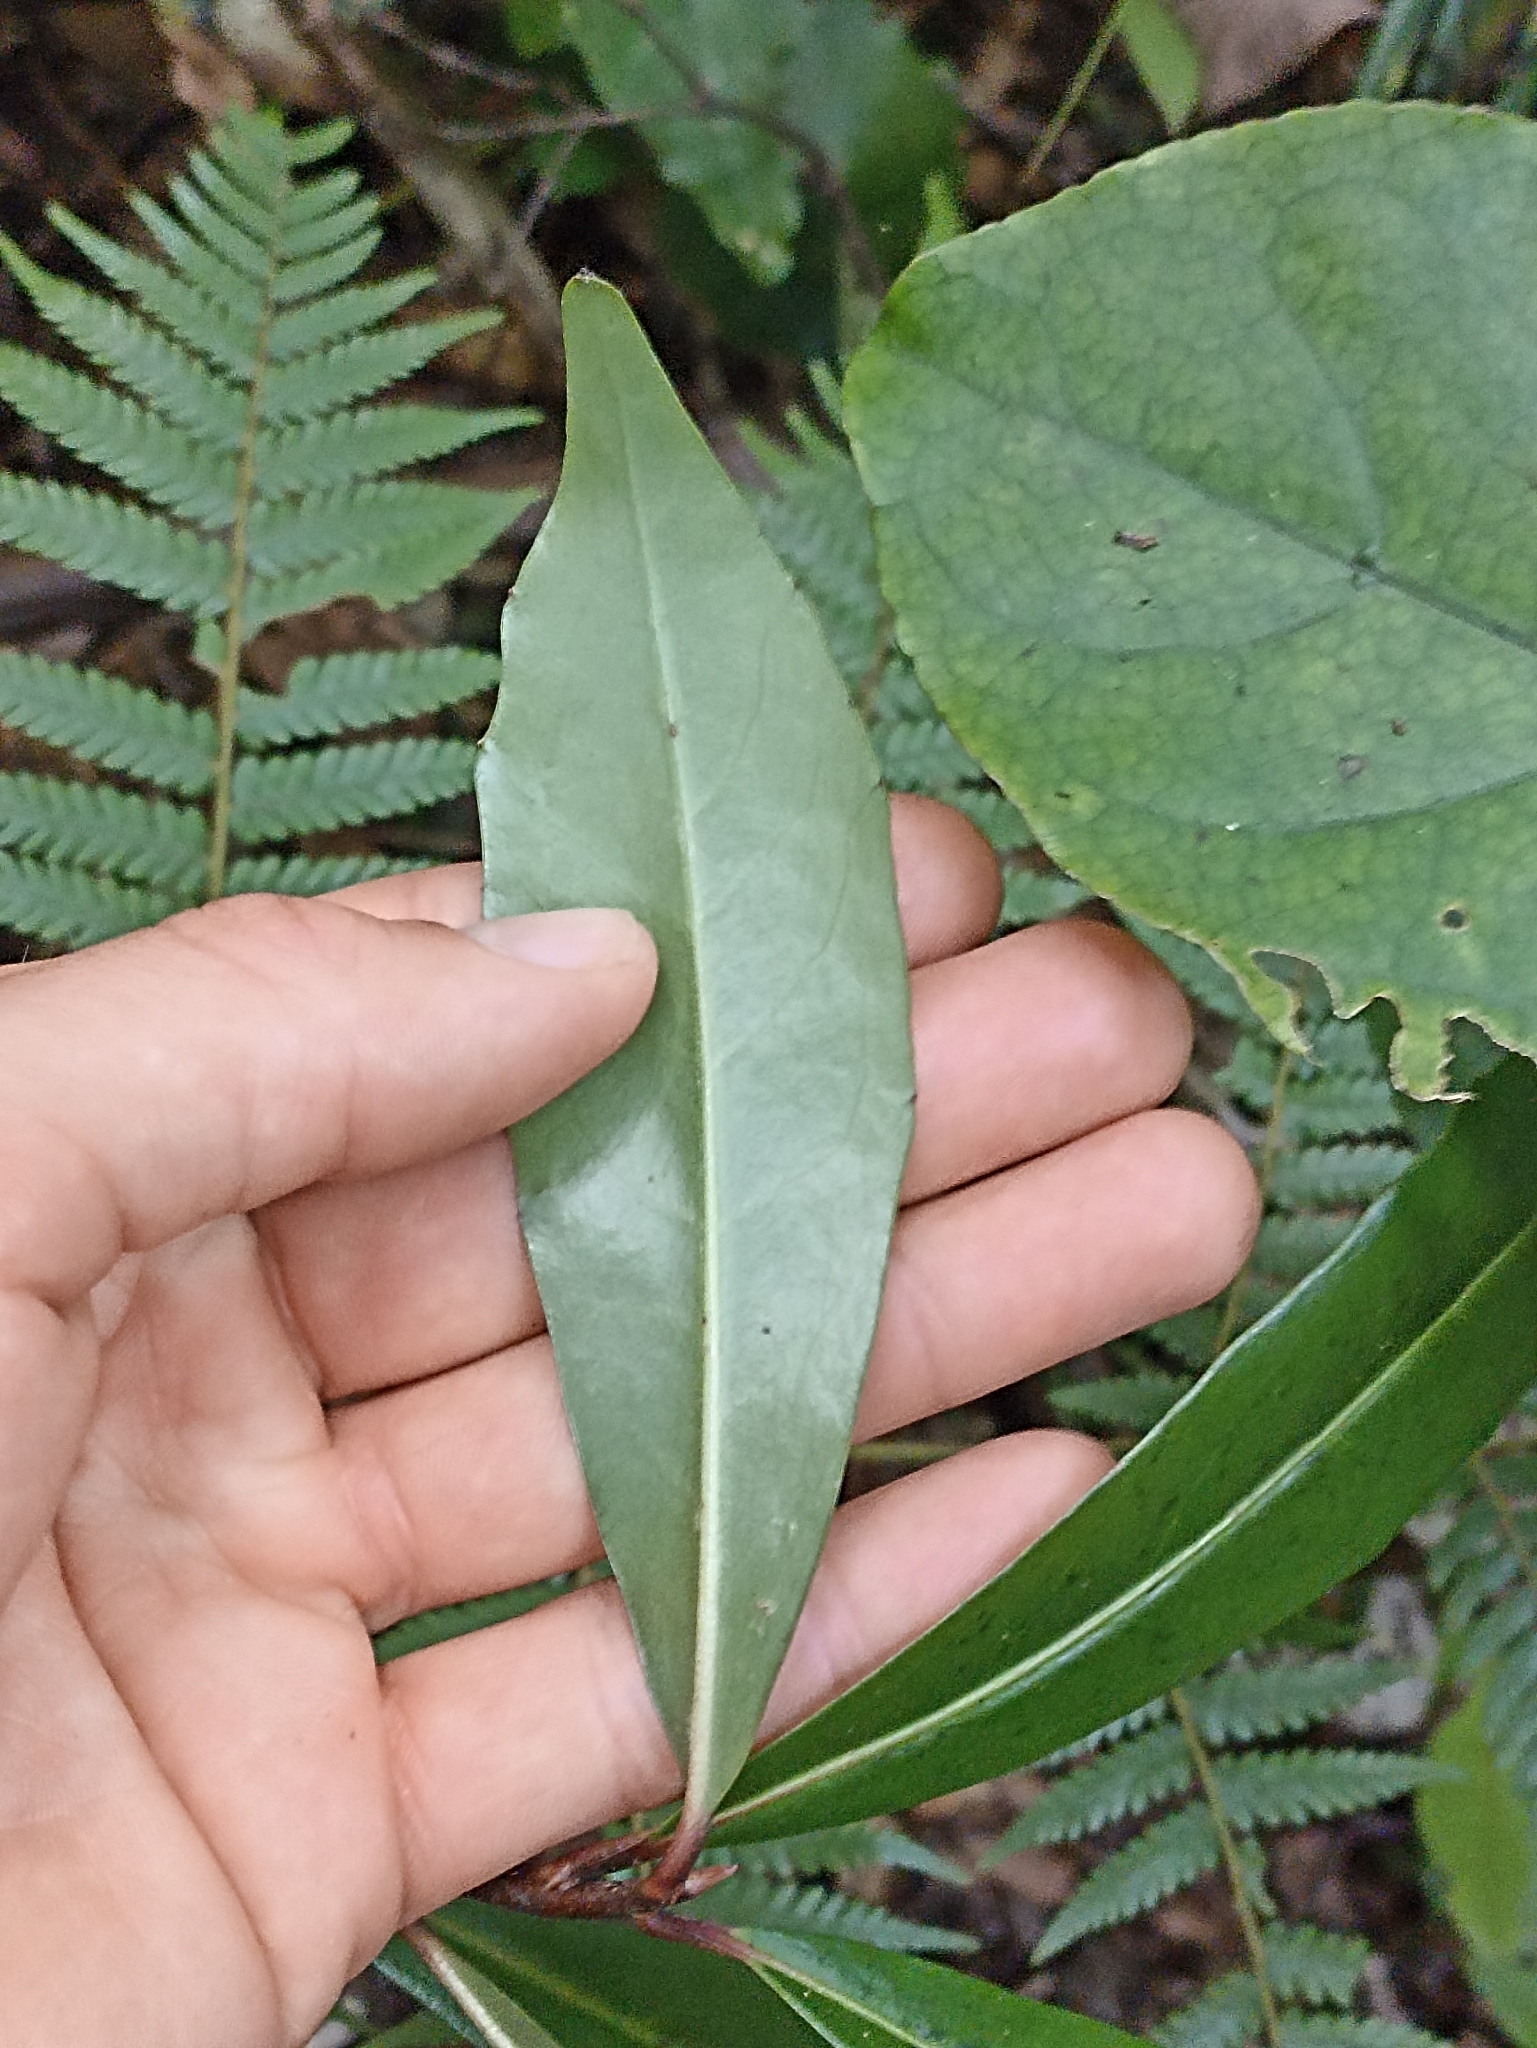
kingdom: Plantae
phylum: Tracheophyta
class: Magnoliopsida
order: Asterales
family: Alseuosmiaceae
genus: Alseuosmia
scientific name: Alseuosmia quercifolia
